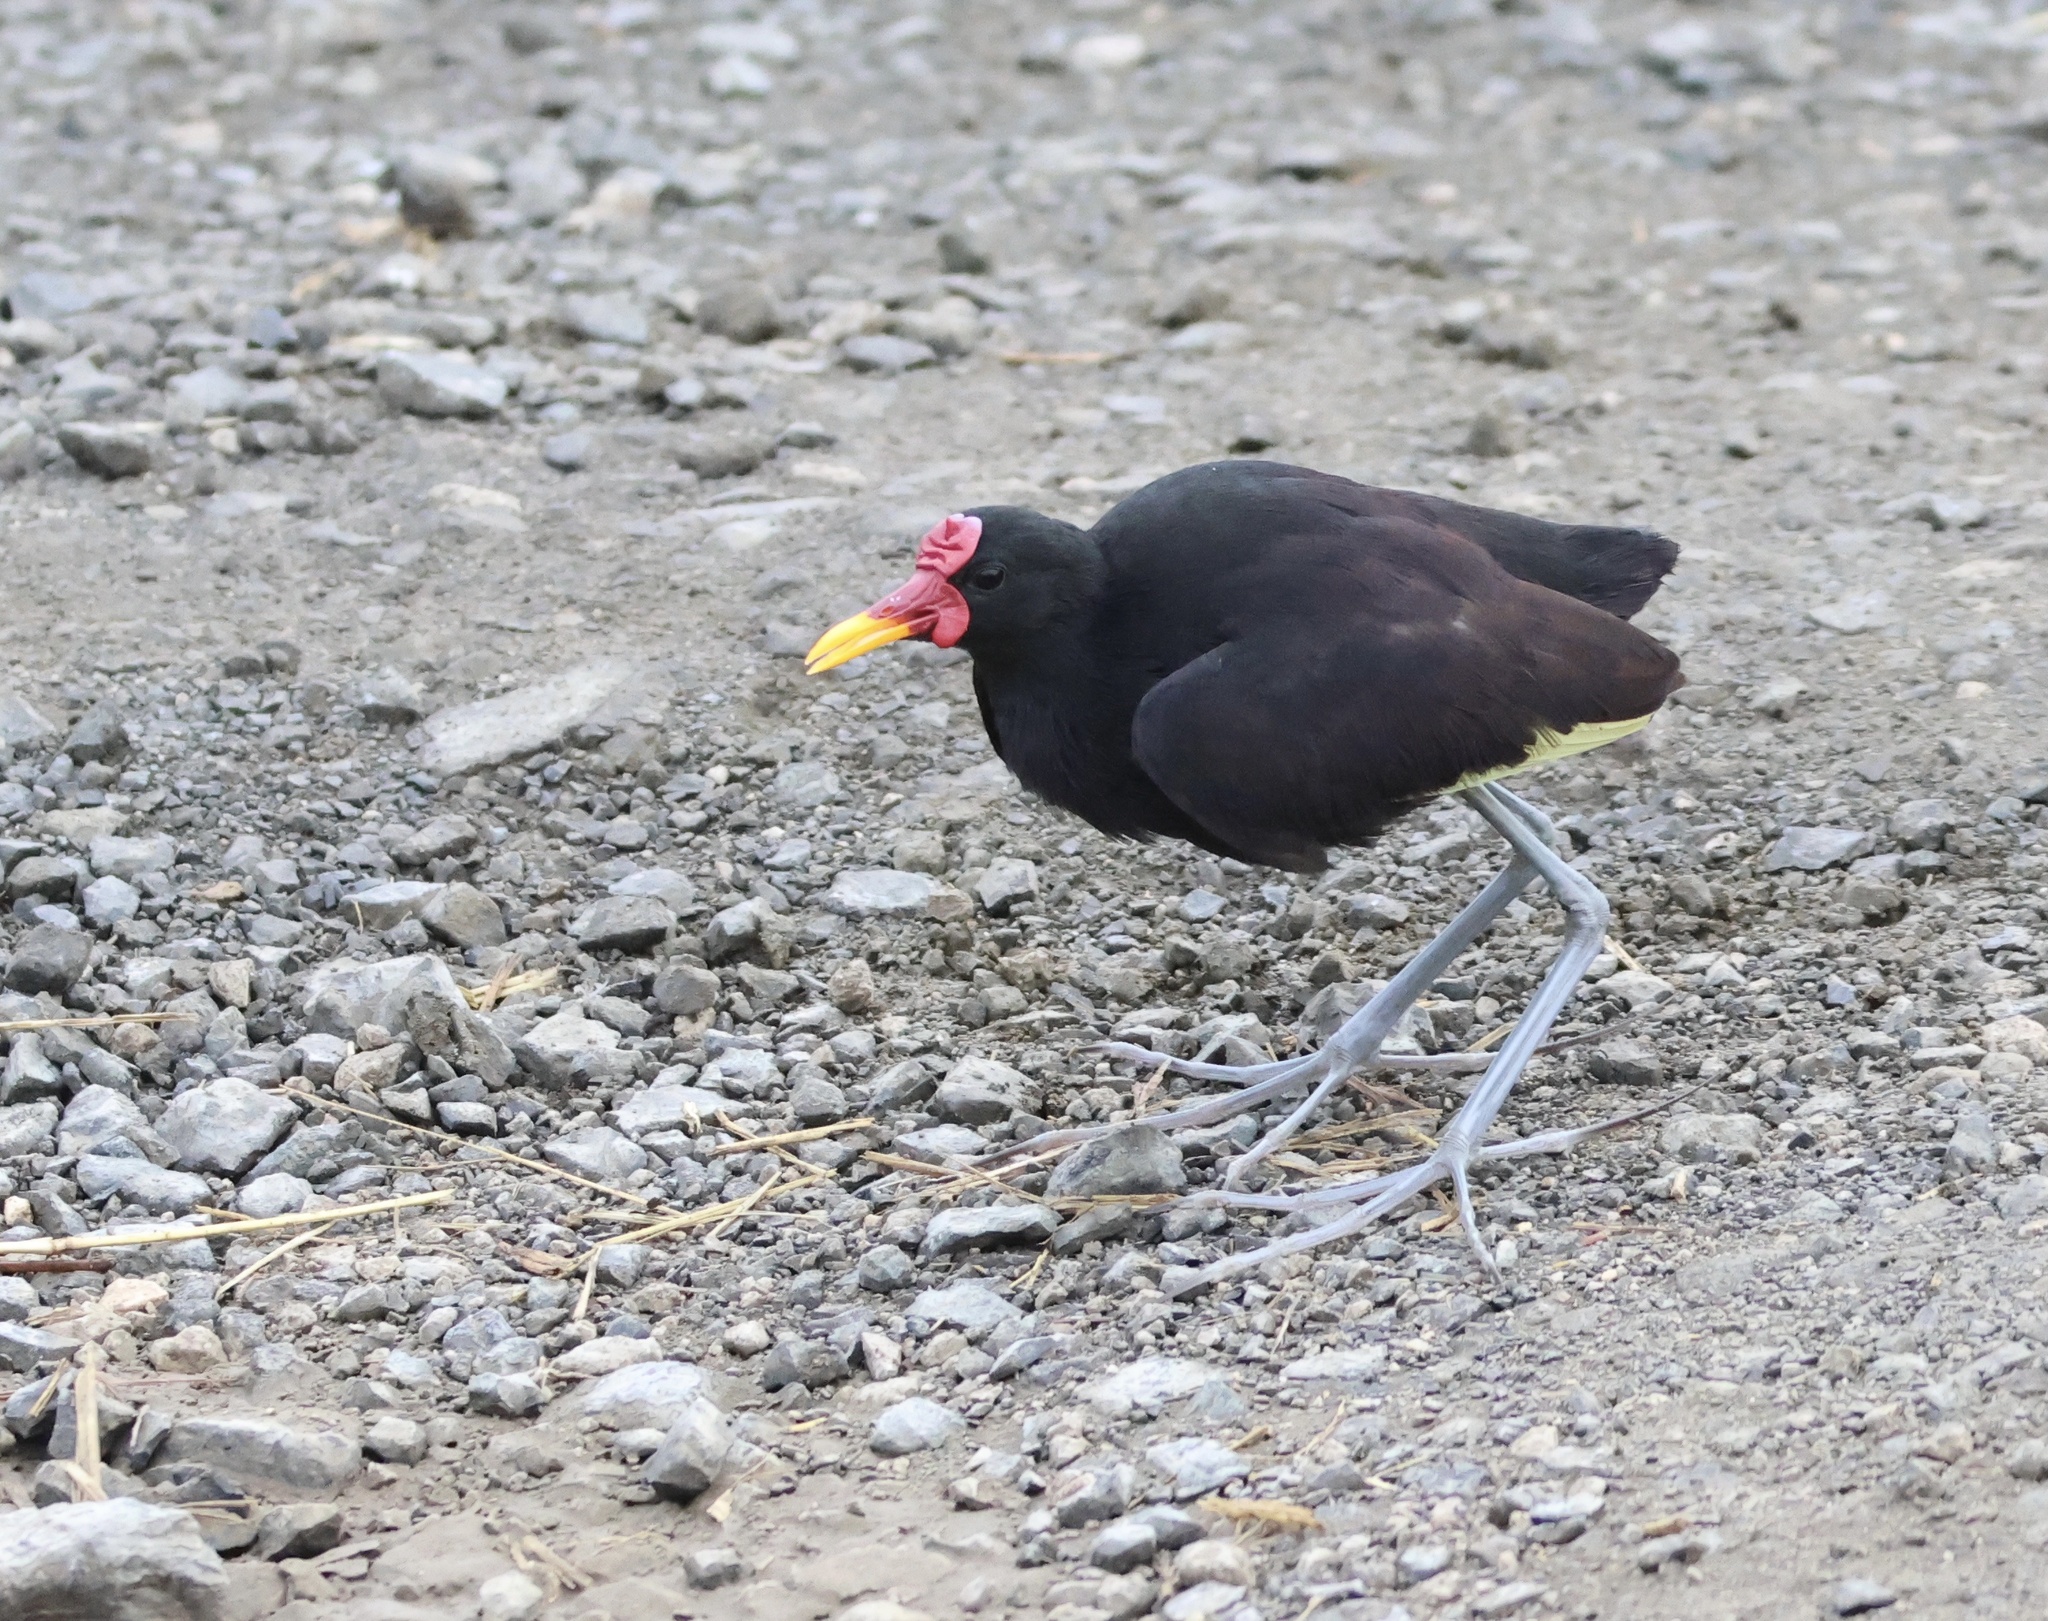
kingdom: Animalia
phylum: Chordata
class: Aves
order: Charadriiformes
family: Jacanidae
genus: Jacana
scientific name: Jacana jacana
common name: Wattled jacana
